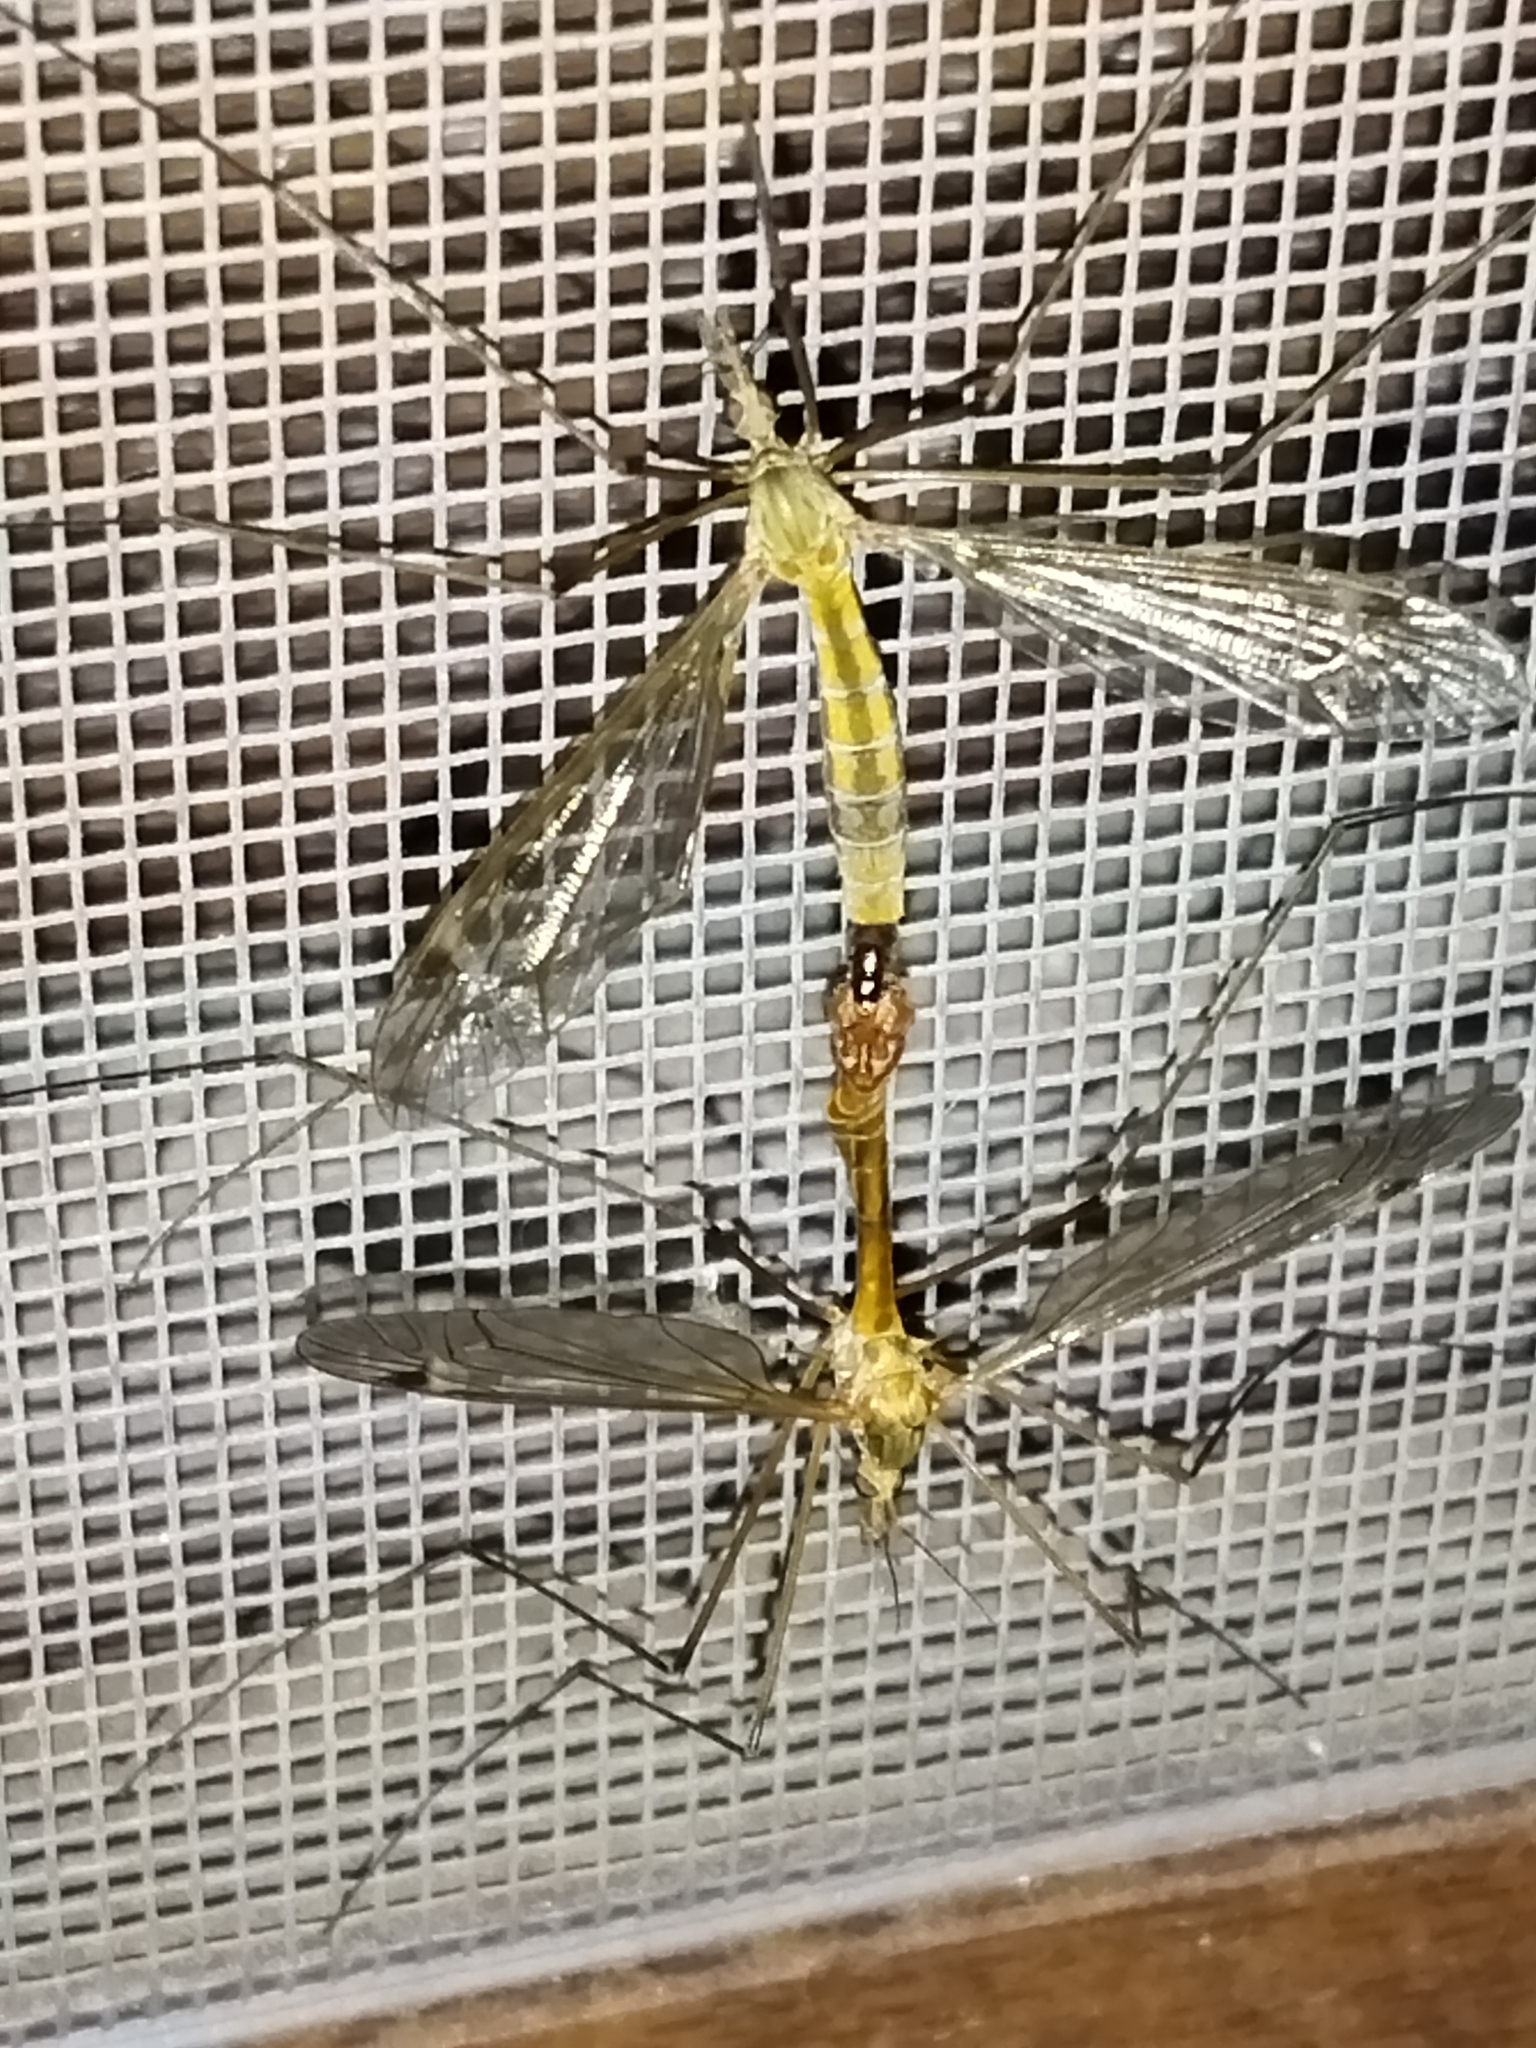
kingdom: Animalia
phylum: Arthropoda
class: Insecta
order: Diptera
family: Tipulidae
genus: Tipula
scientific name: Tipula lunata
